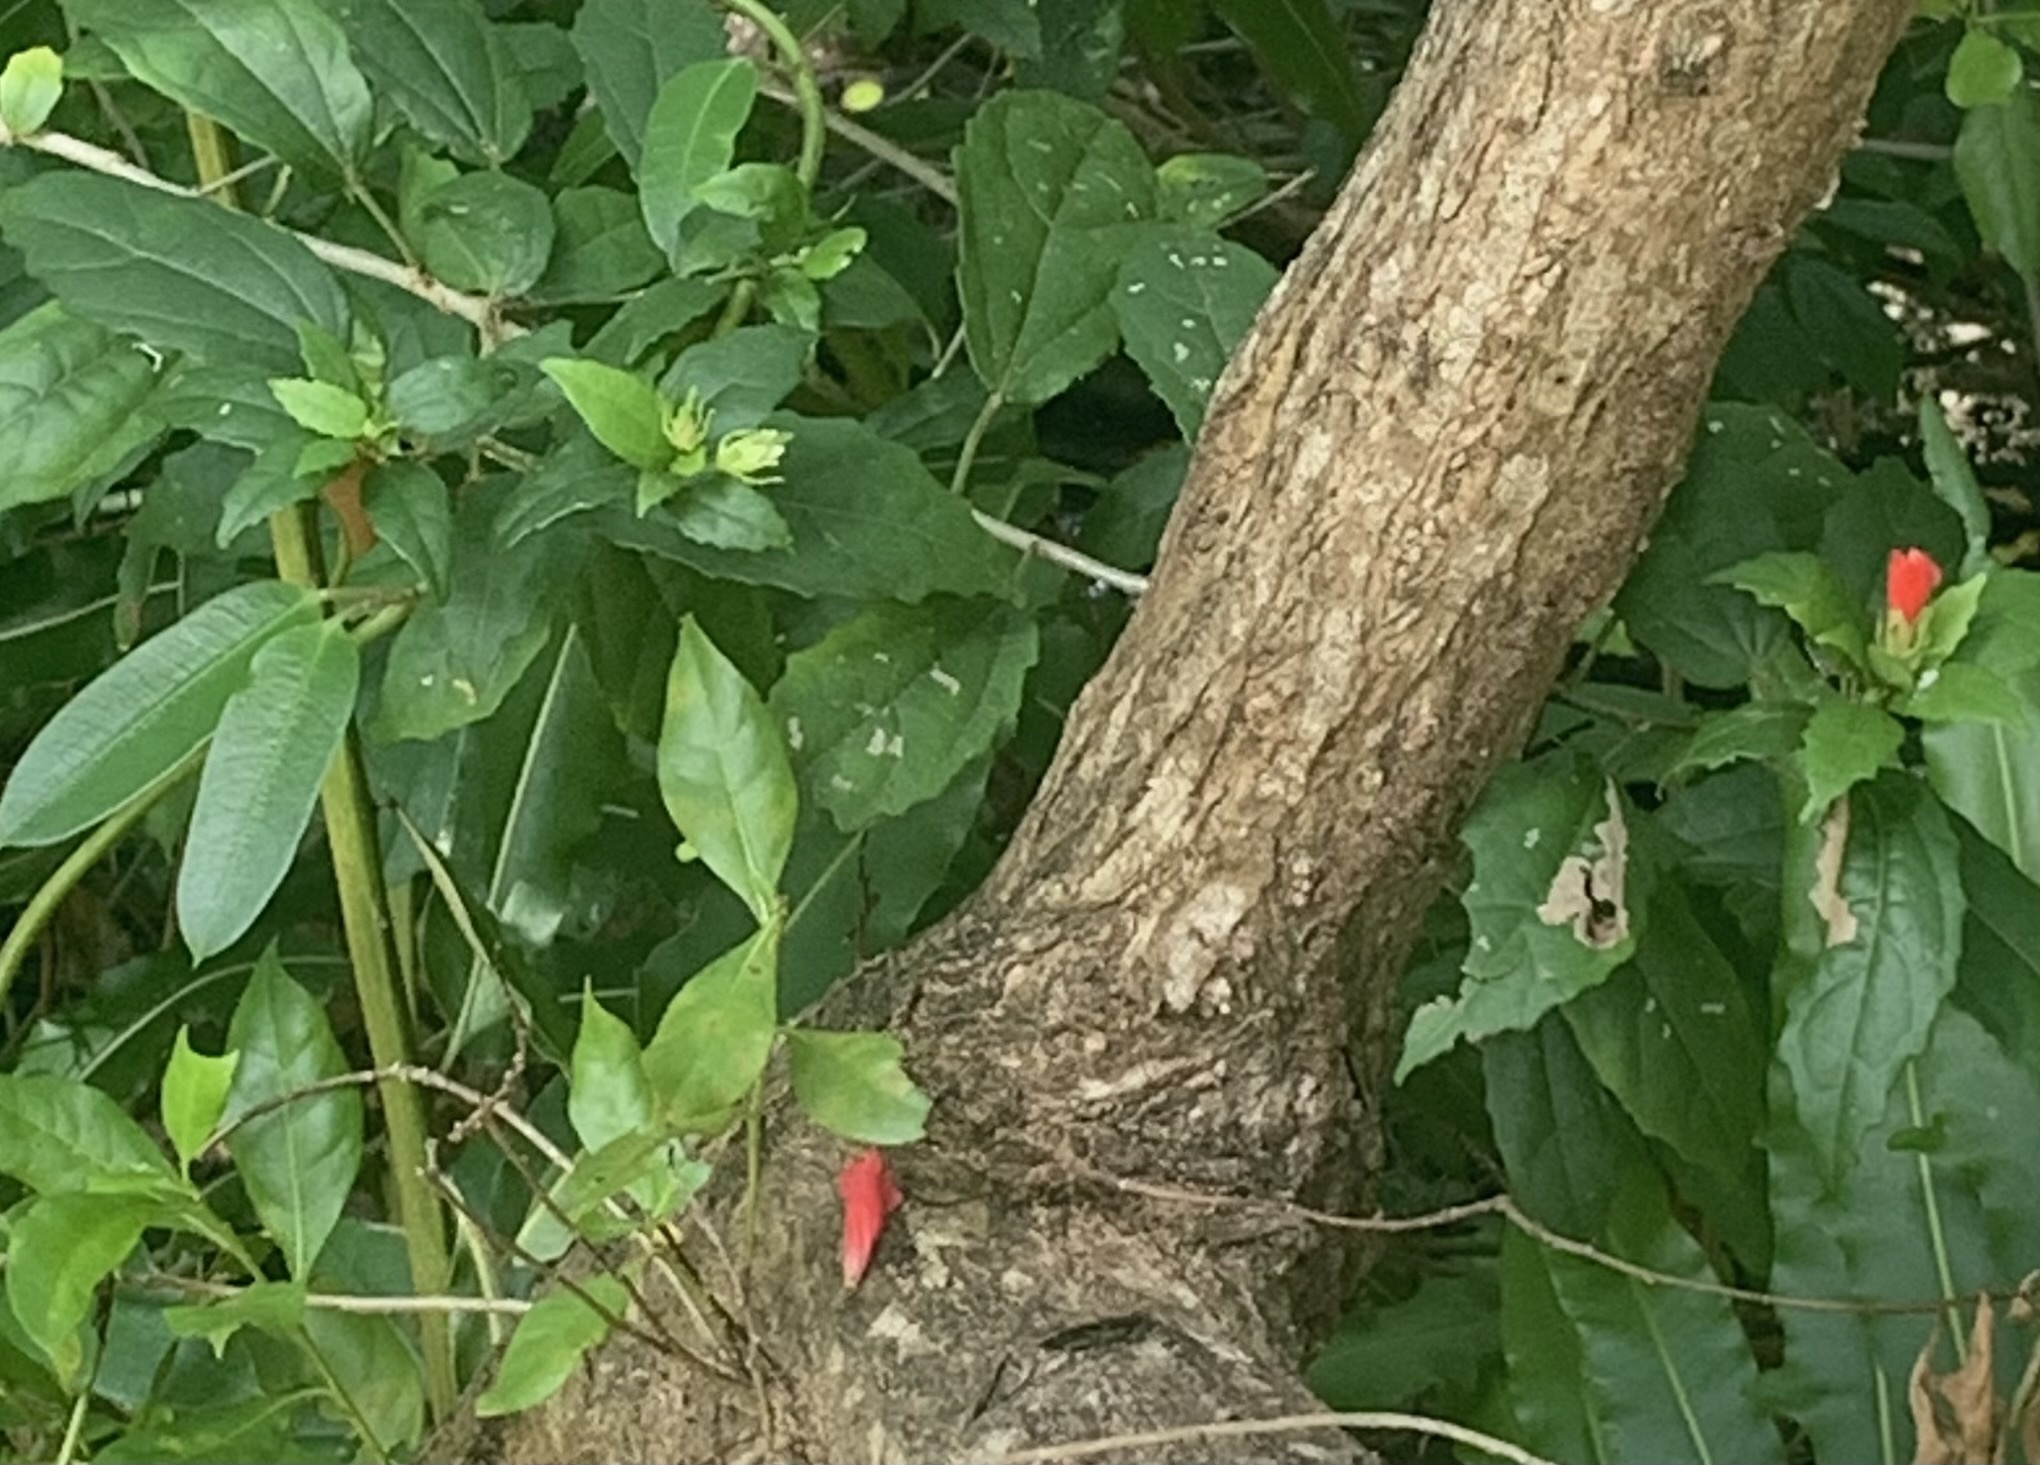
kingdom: Plantae
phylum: Tracheophyta
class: Magnoliopsida
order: Malvales
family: Malvaceae
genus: Malvaviscus
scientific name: Malvaviscus arboreus
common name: Wax mallow
